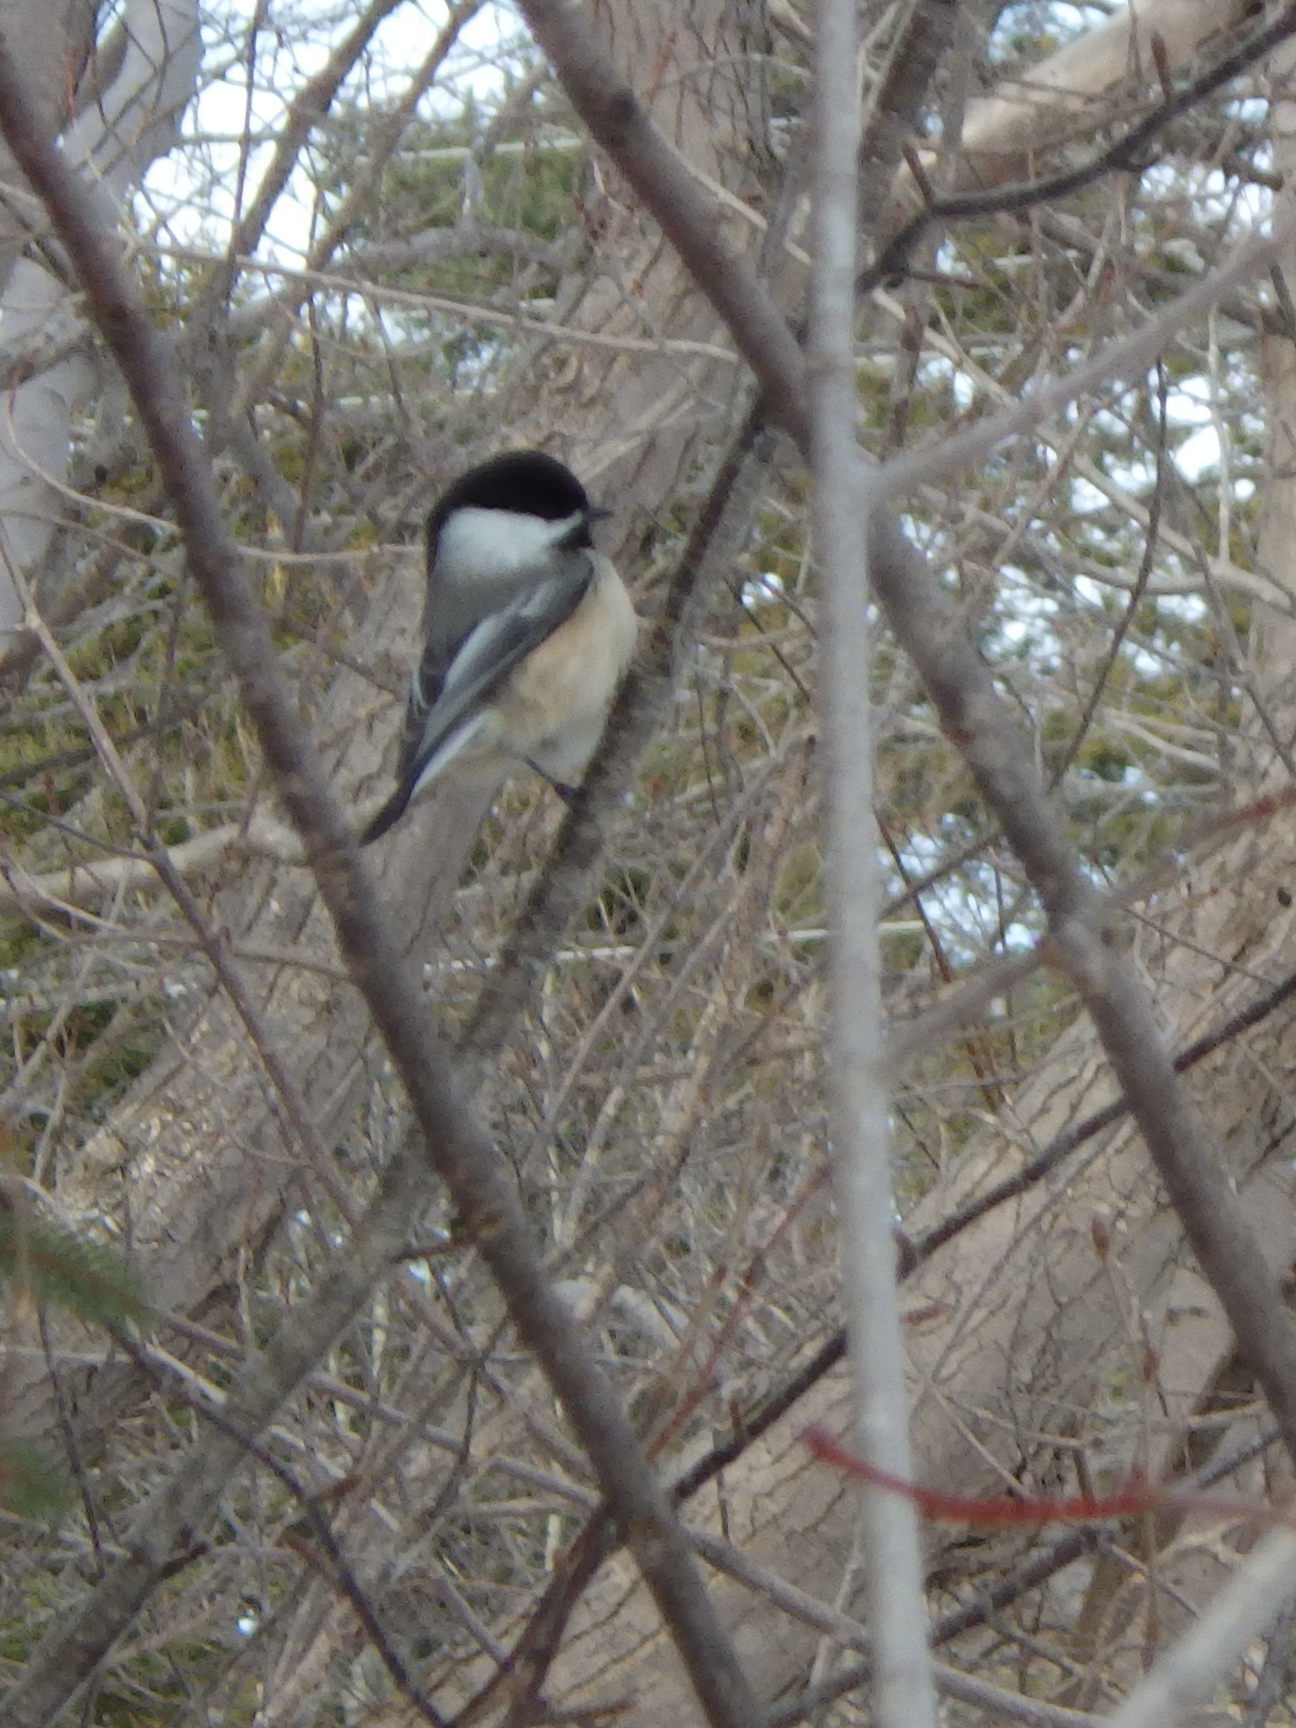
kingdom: Animalia
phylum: Chordata
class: Aves
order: Passeriformes
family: Paridae
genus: Poecile
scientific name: Poecile atricapillus
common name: Black-capped chickadee
